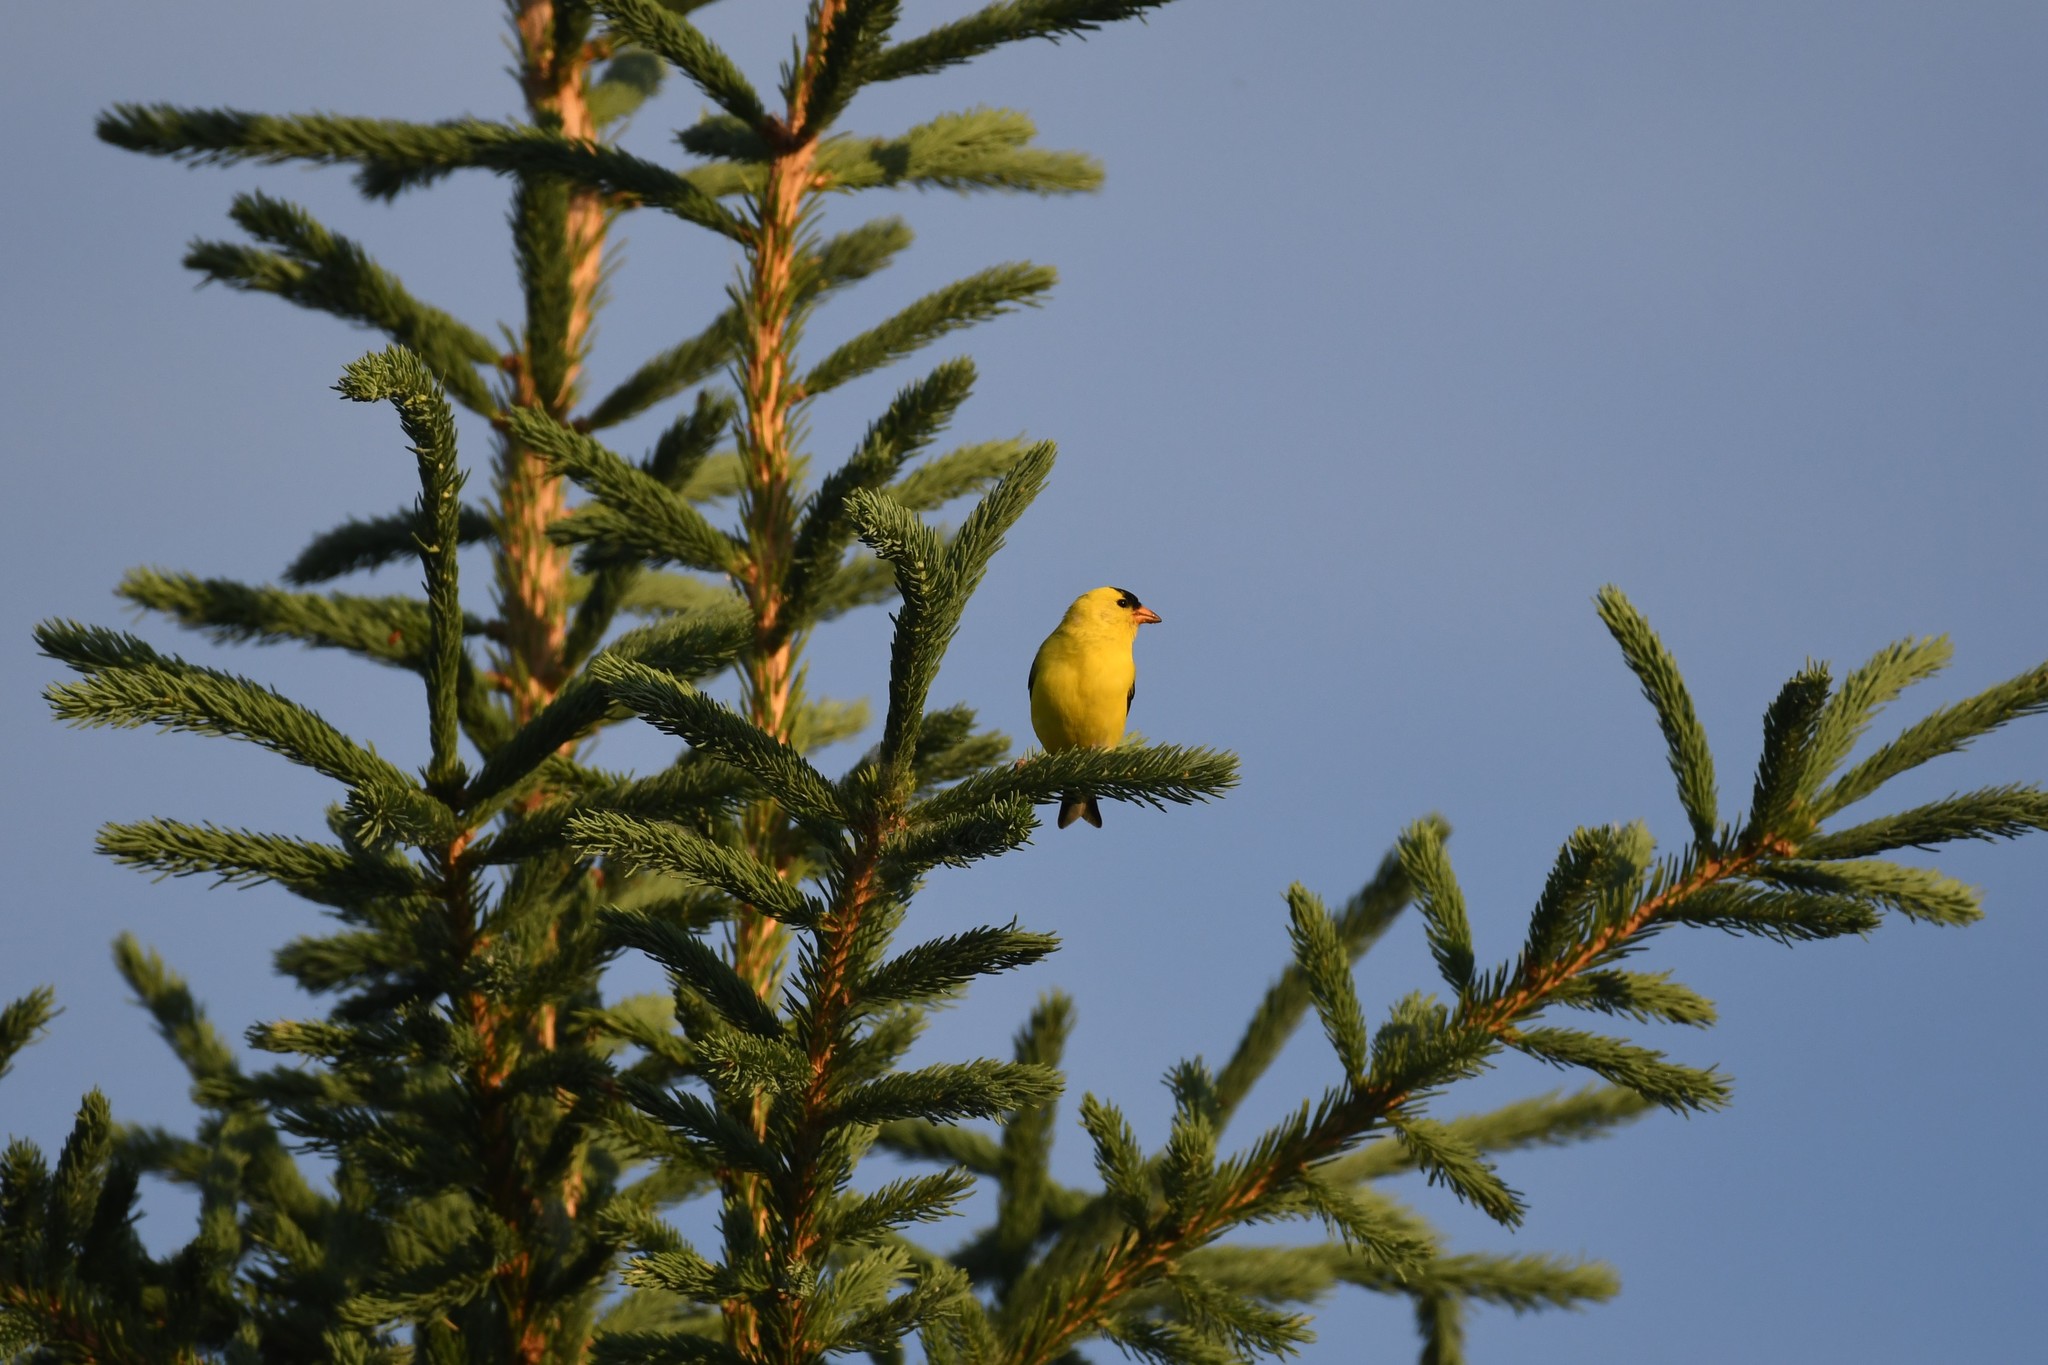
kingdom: Animalia
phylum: Chordata
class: Aves
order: Passeriformes
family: Fringillidae
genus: Spinus
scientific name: Spinus tristis
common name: American goldfinch
